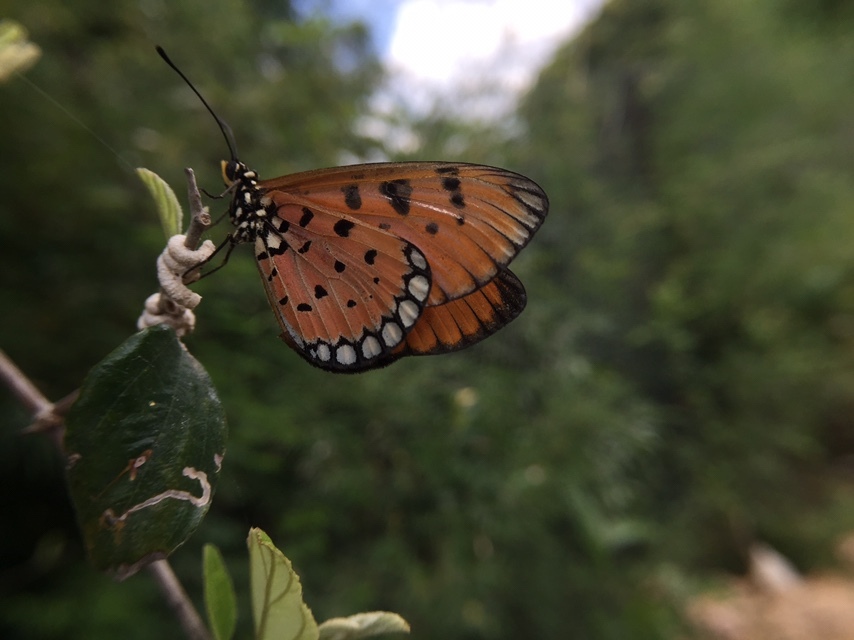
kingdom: Animalia
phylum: Arthropoda
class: Insecta
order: Lepidoptera
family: Nymphalidae
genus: Acraea
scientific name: Acraea terpsicore
